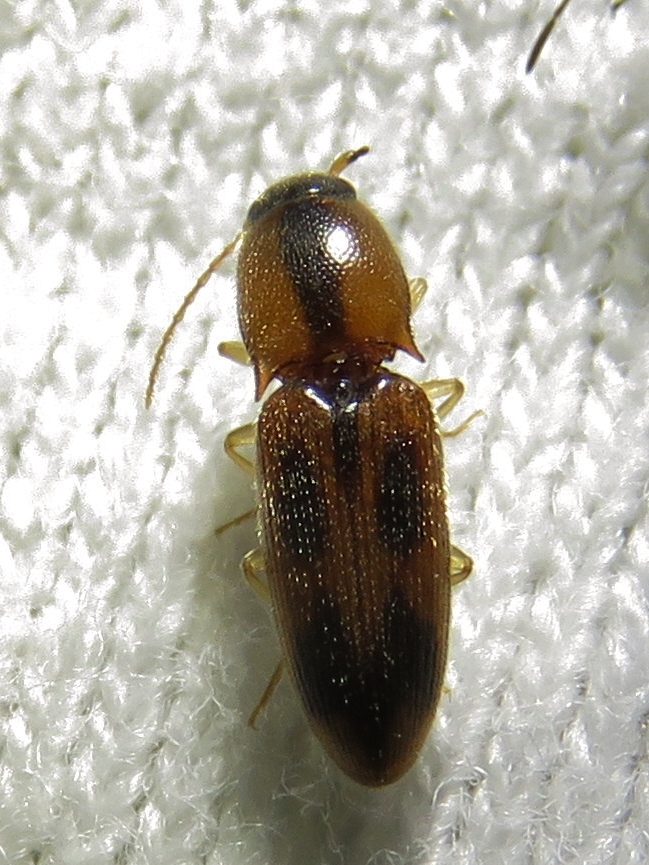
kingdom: Animalia
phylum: Arthropoda
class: Insecta
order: Coleoptera
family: Elateridae
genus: Aeolus
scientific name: Aeolus mellillus
